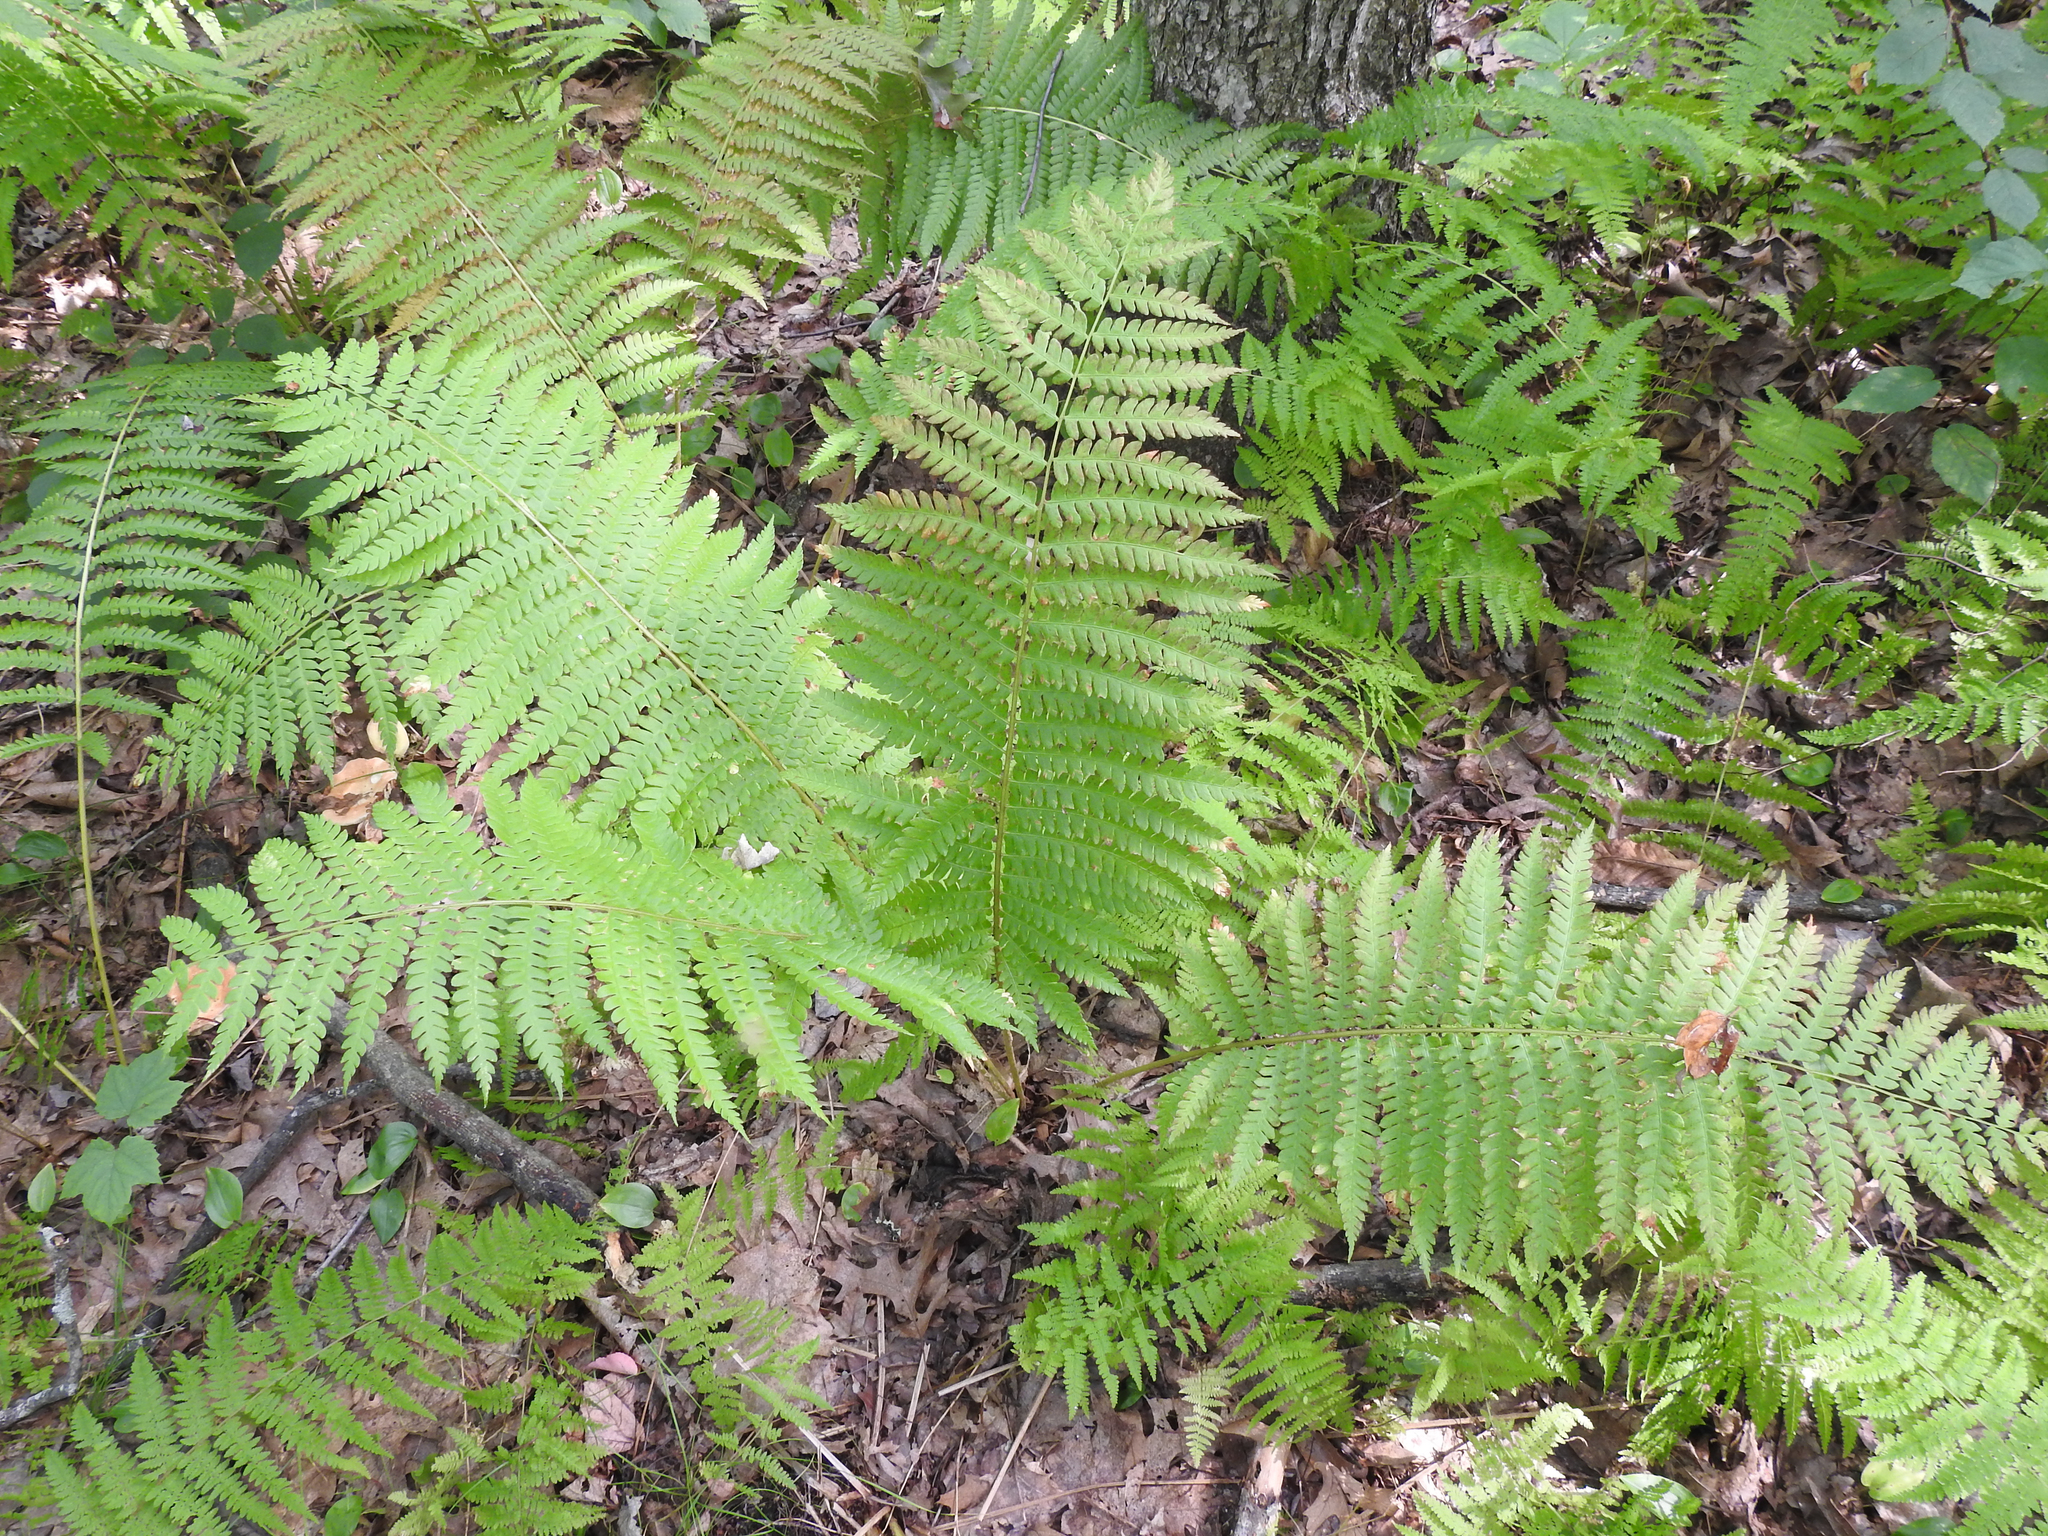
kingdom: Plantae
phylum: Tracheophyta
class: Polypodiopsida
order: Osmundales
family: Osmundaceae
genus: Osmundastrum
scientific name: Osmundastrum cinnamomeum
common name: Cinnamon fern
